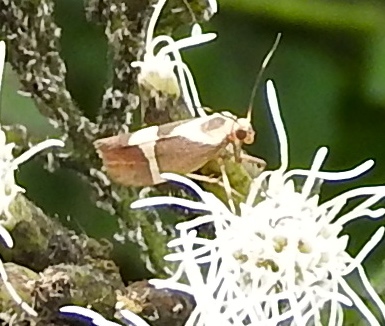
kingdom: Animalia
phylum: Arthropoda
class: Insecta
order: Lepidoptera
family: Erebidae
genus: Cisthene
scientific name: Cisthene
